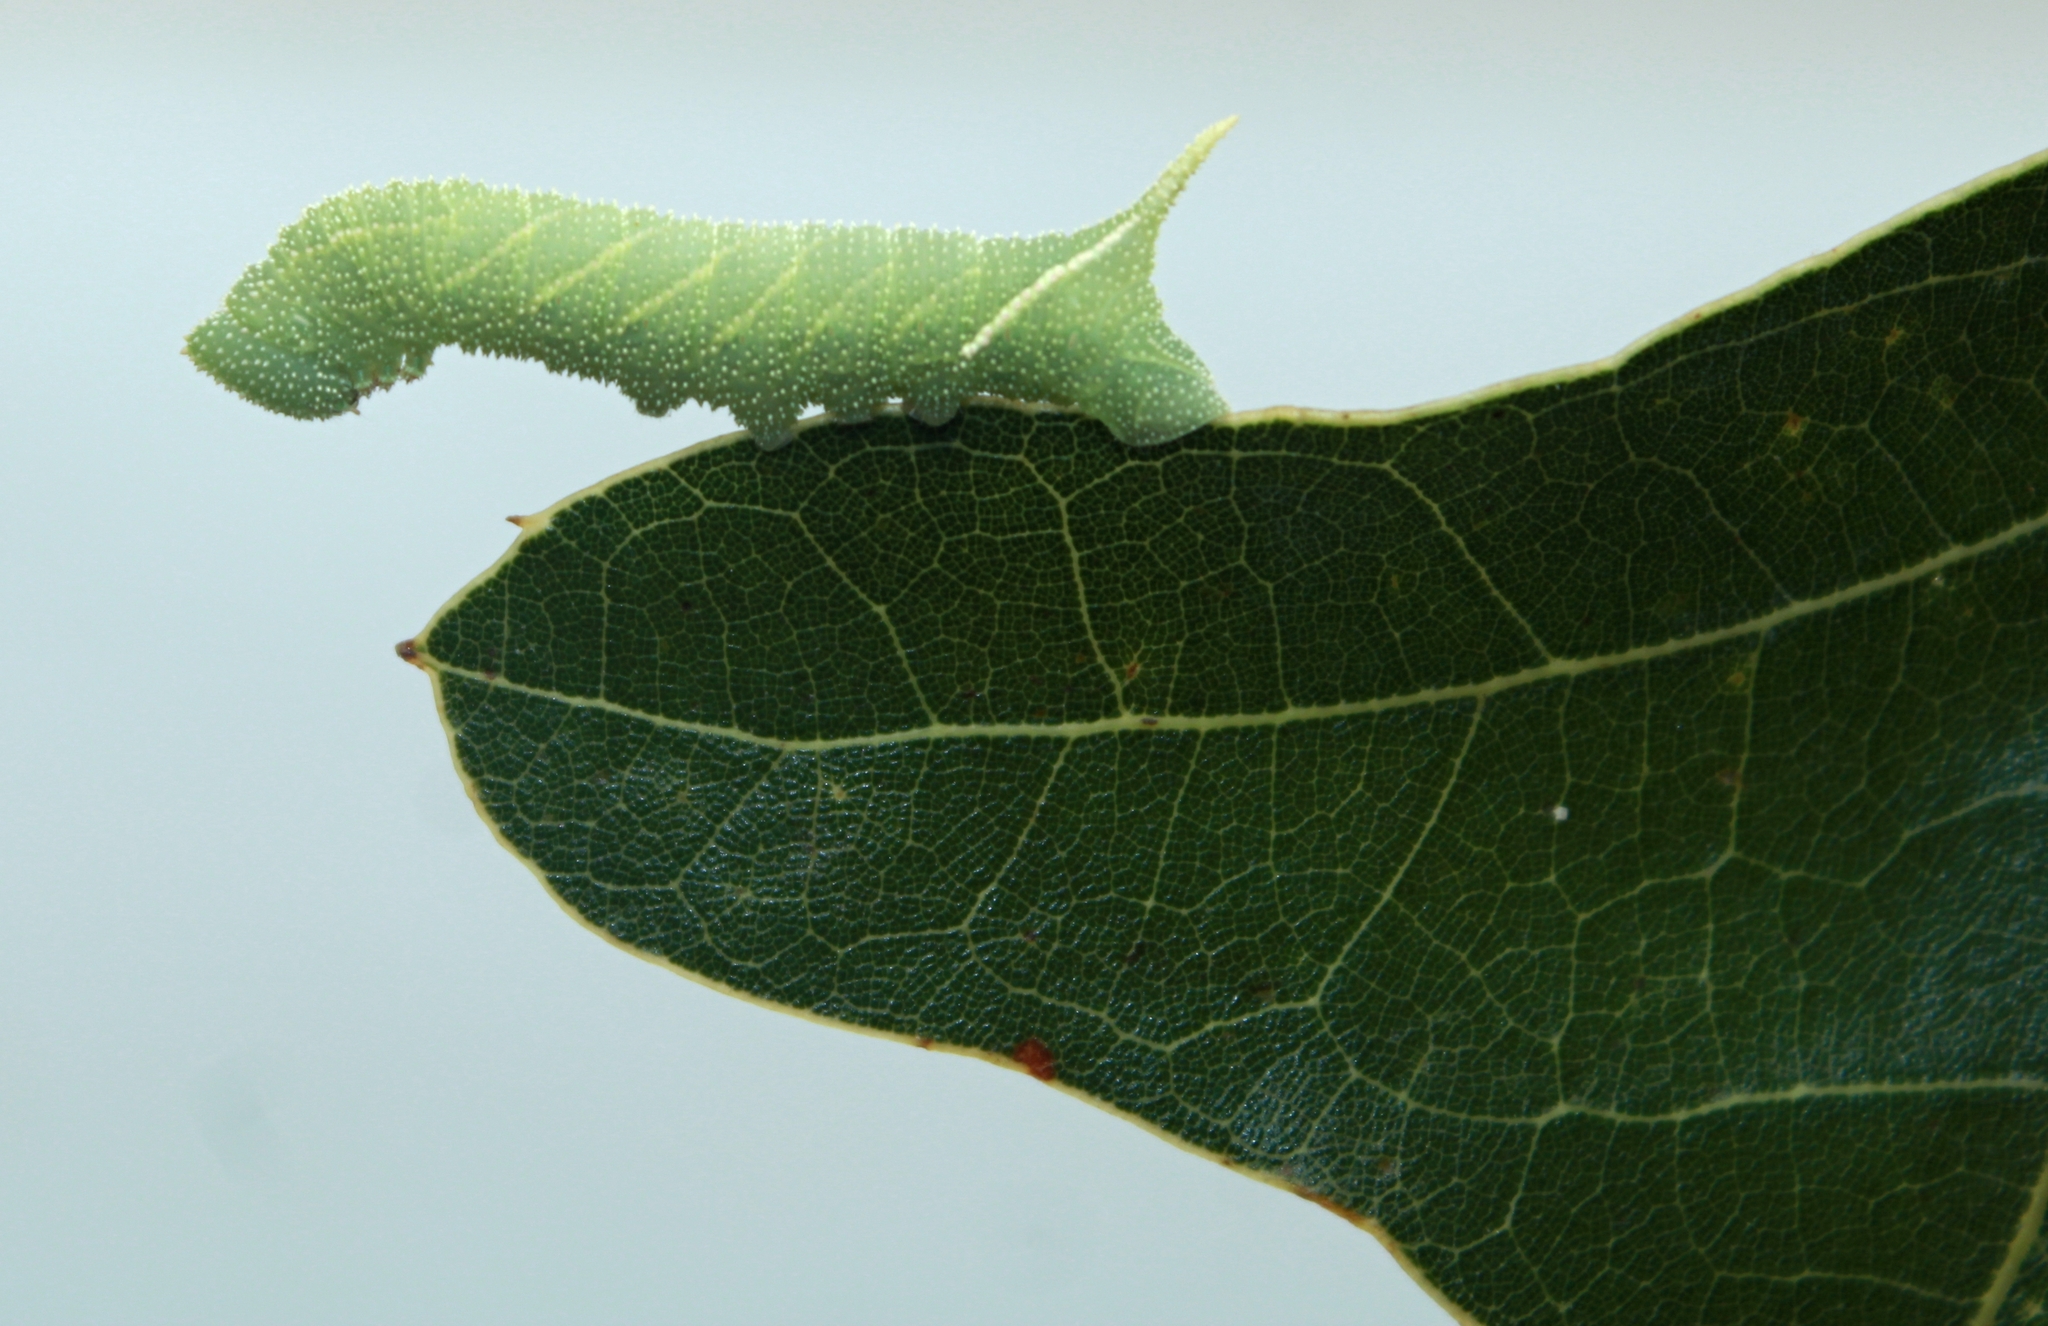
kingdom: Animalia
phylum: Arthropoda
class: Insecta
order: Lepidoptera
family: Sphingidae
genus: Paonias
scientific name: Paonias excaecata
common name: Blind-eyed sphinx
